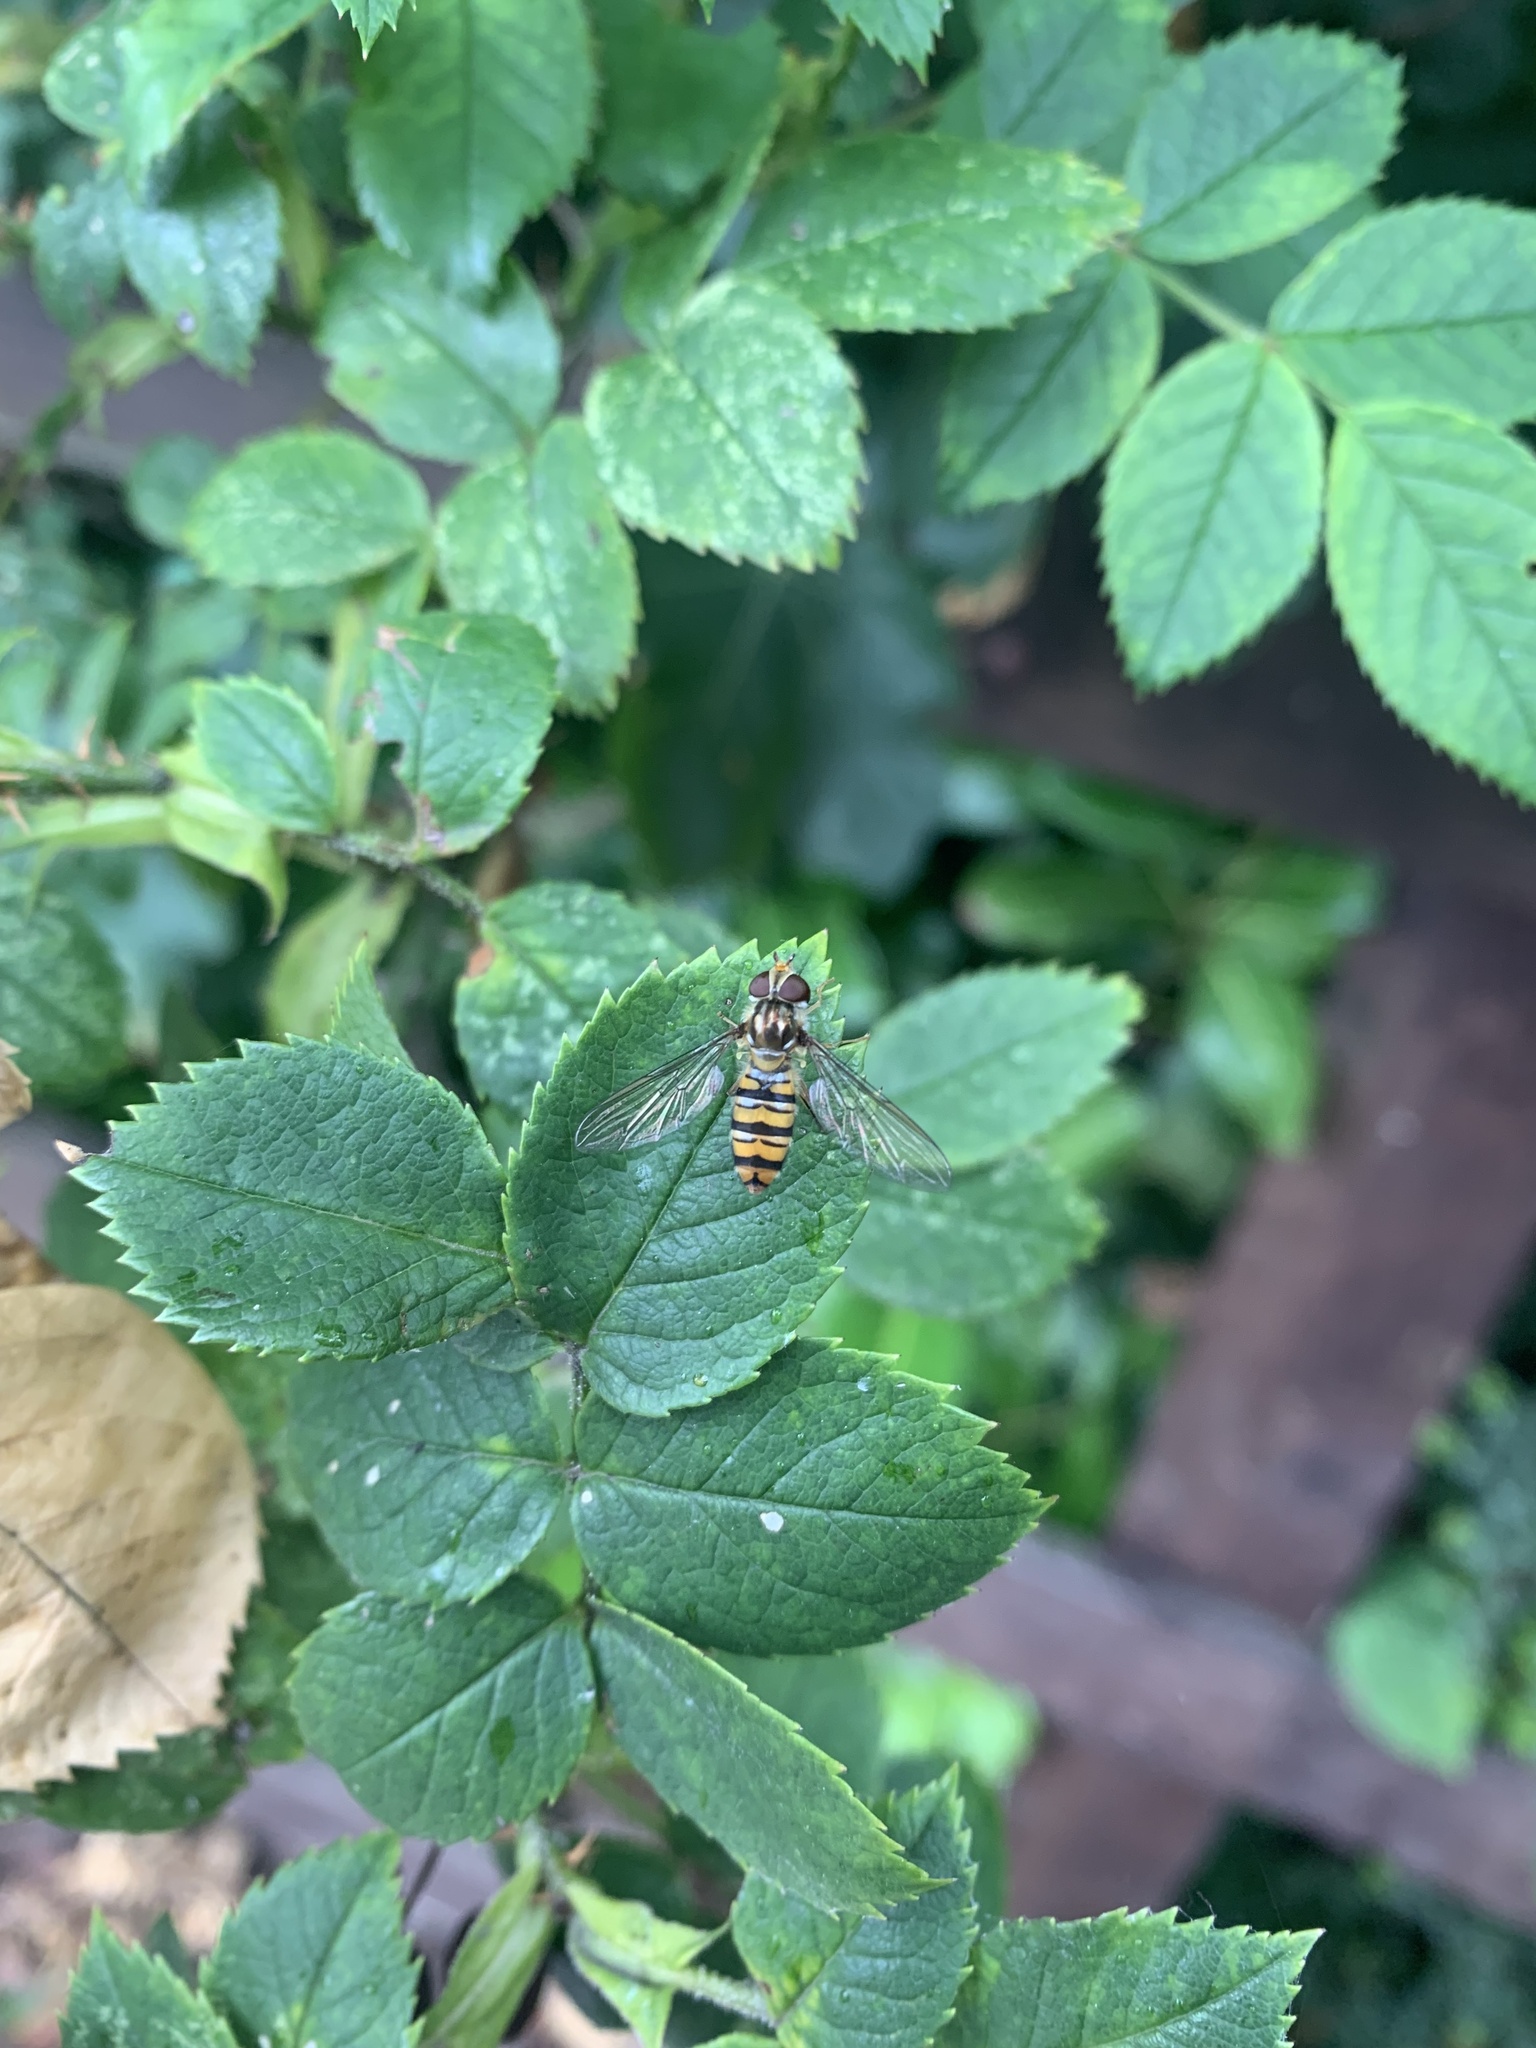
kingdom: Animalia
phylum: Arthropoda
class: Insecta
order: Diptera
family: Syrphidae
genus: Episyrphus
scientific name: Episyrphus balteatus
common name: Marmalade hoverfly
